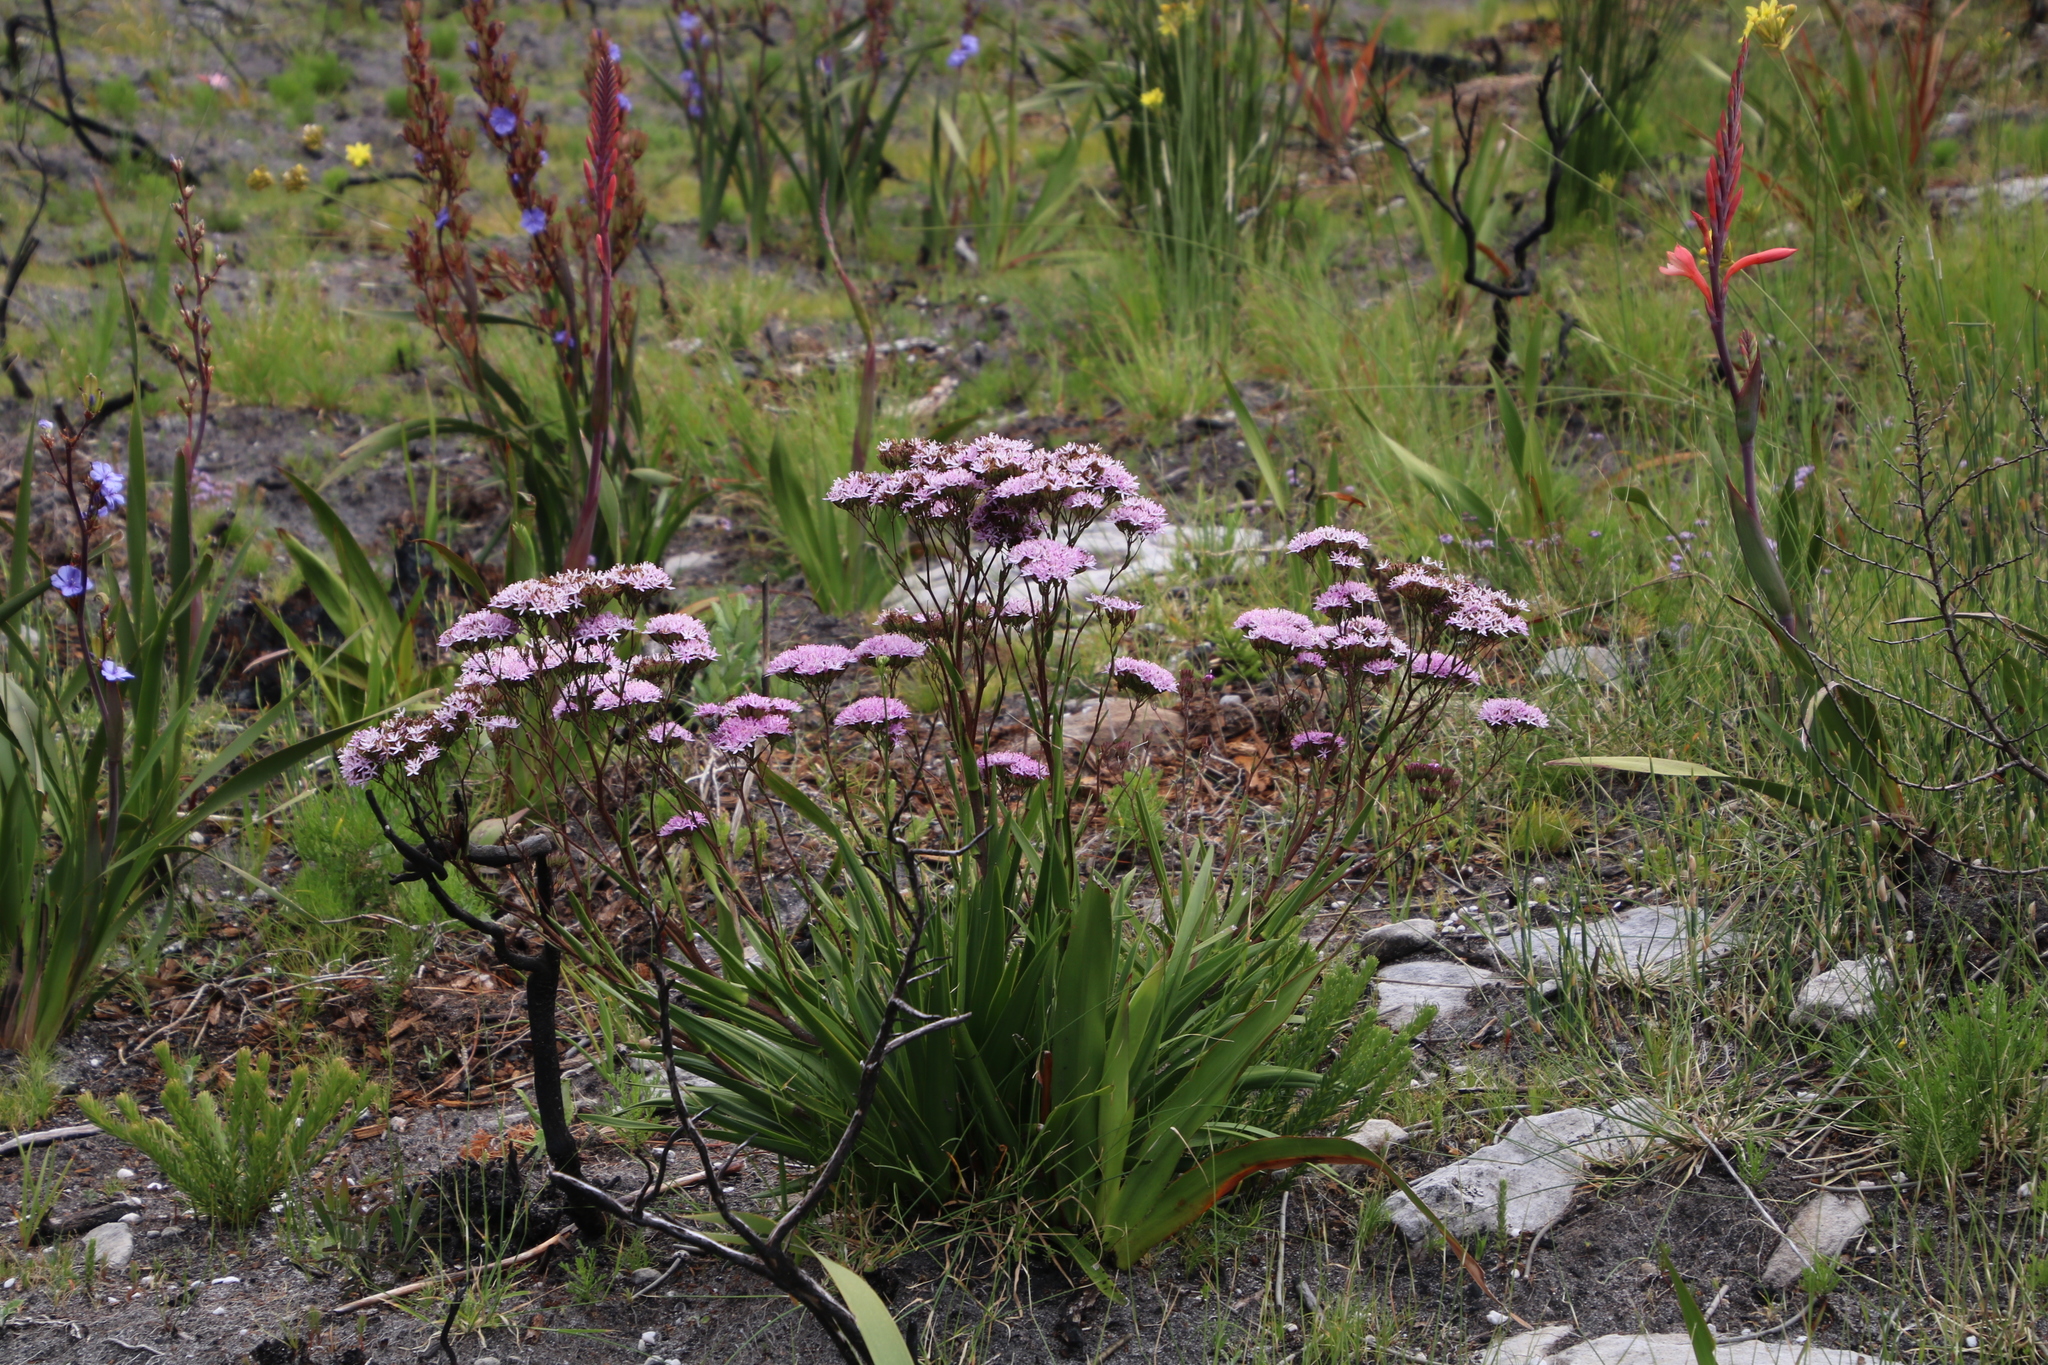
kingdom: Plantae
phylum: Tracheophyta
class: Magnoliopsida
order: Asterales
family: Asteraceae
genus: Corymbium
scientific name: Corymbium glabrum
